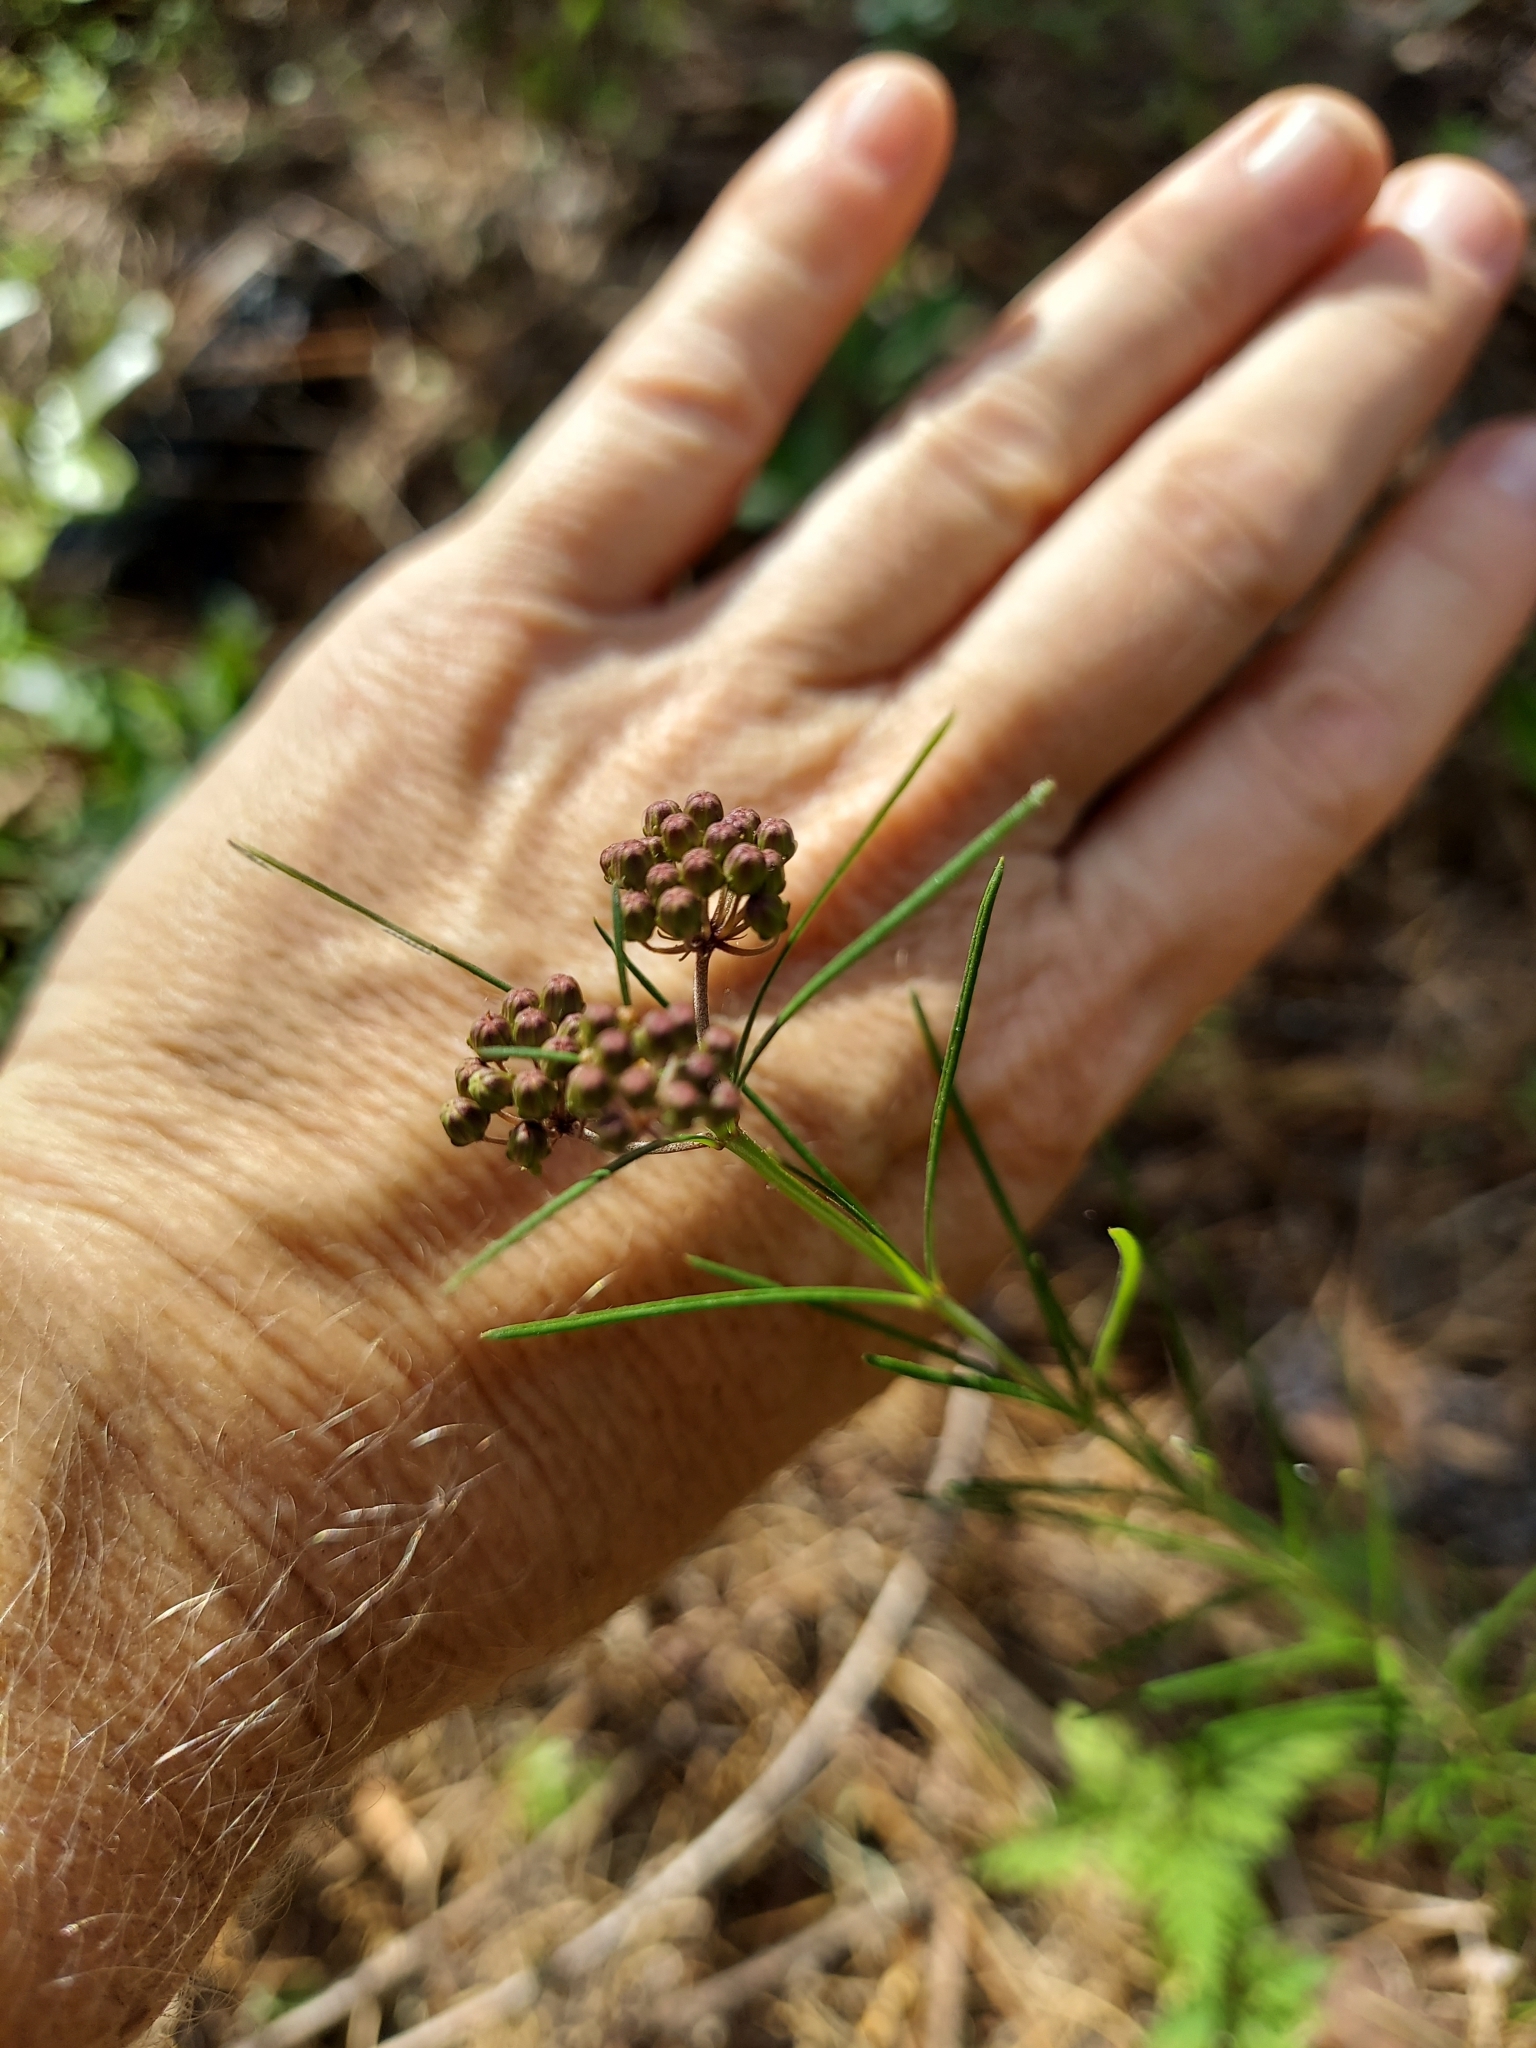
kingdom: Plantae
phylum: Tracheophyta
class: Magnoliopsida
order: Gentianales
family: Apocynaceae
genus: Asclepias
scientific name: Asclepias verticillata
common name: Eastern whorled milkweed
